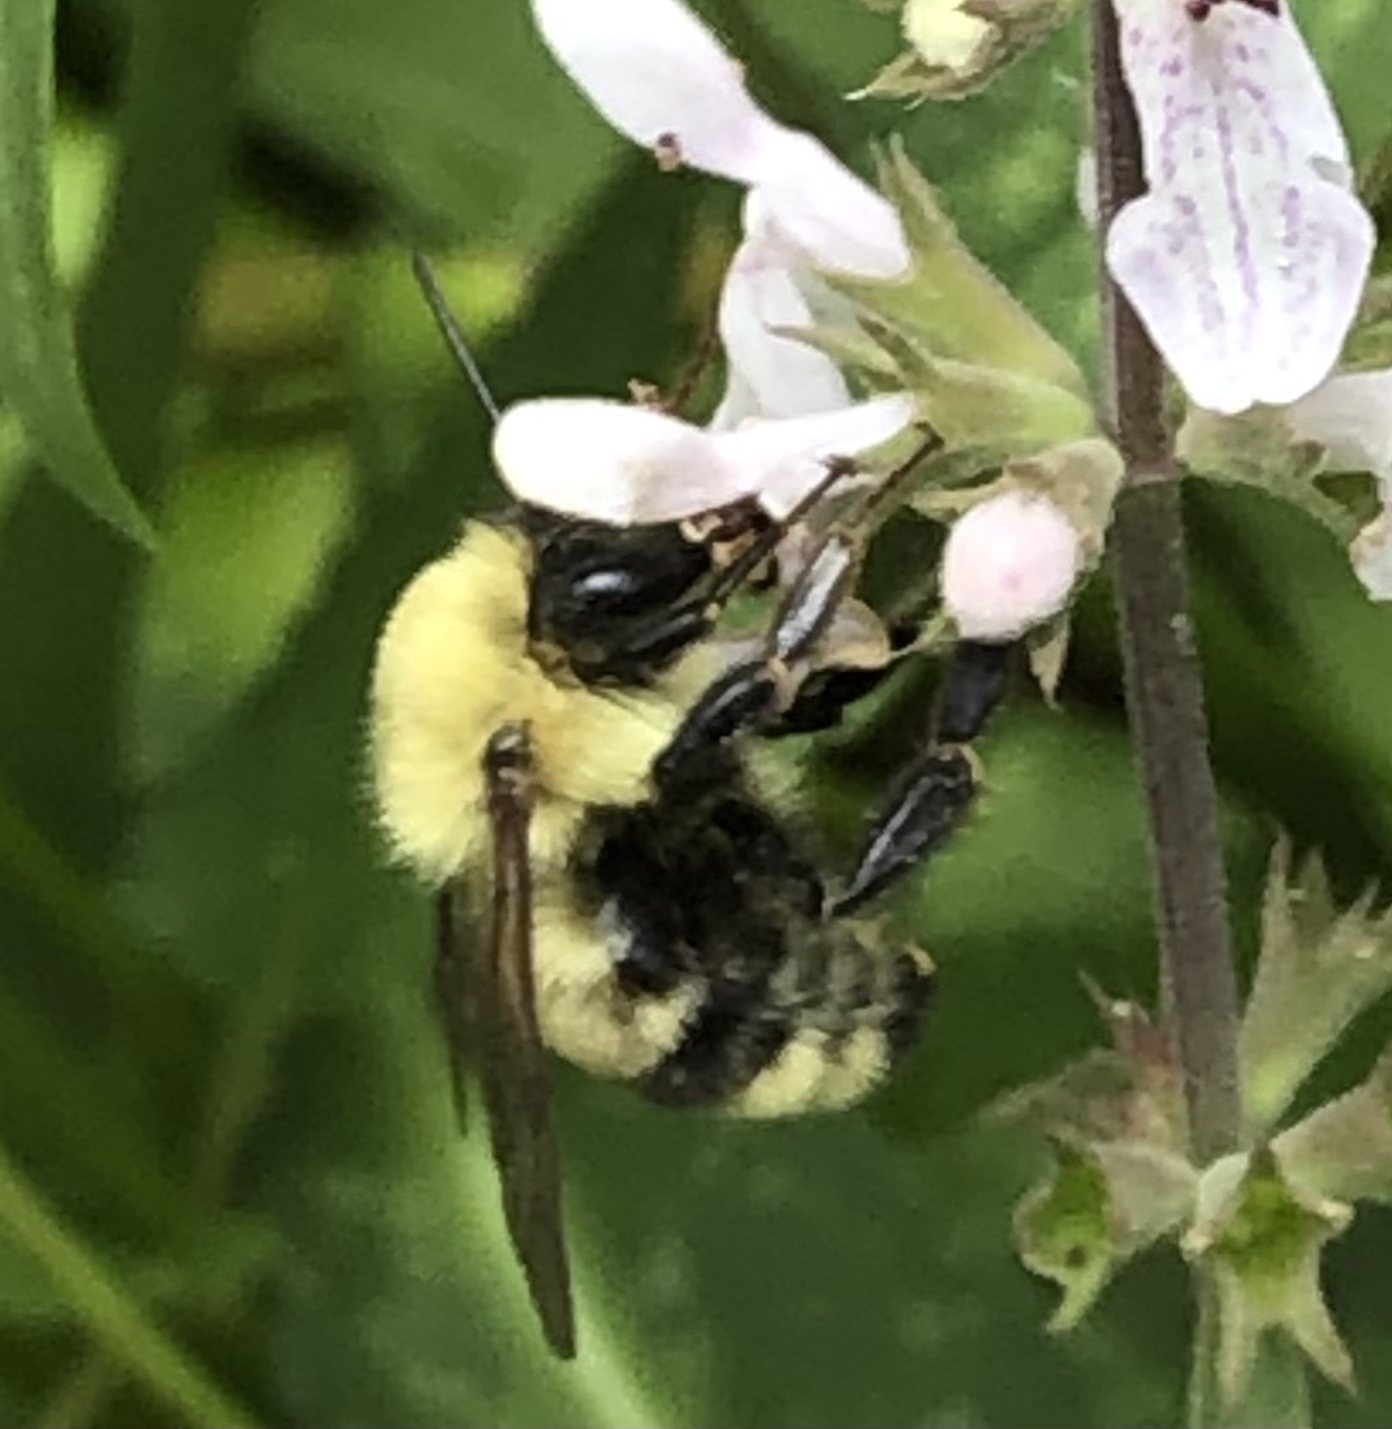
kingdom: Animalia
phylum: Arthropoda
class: Insecta
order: Hymenoptera
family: Apidae
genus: Bombus
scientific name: Bombus bimaculatus
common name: Two-spotted bumble bee
